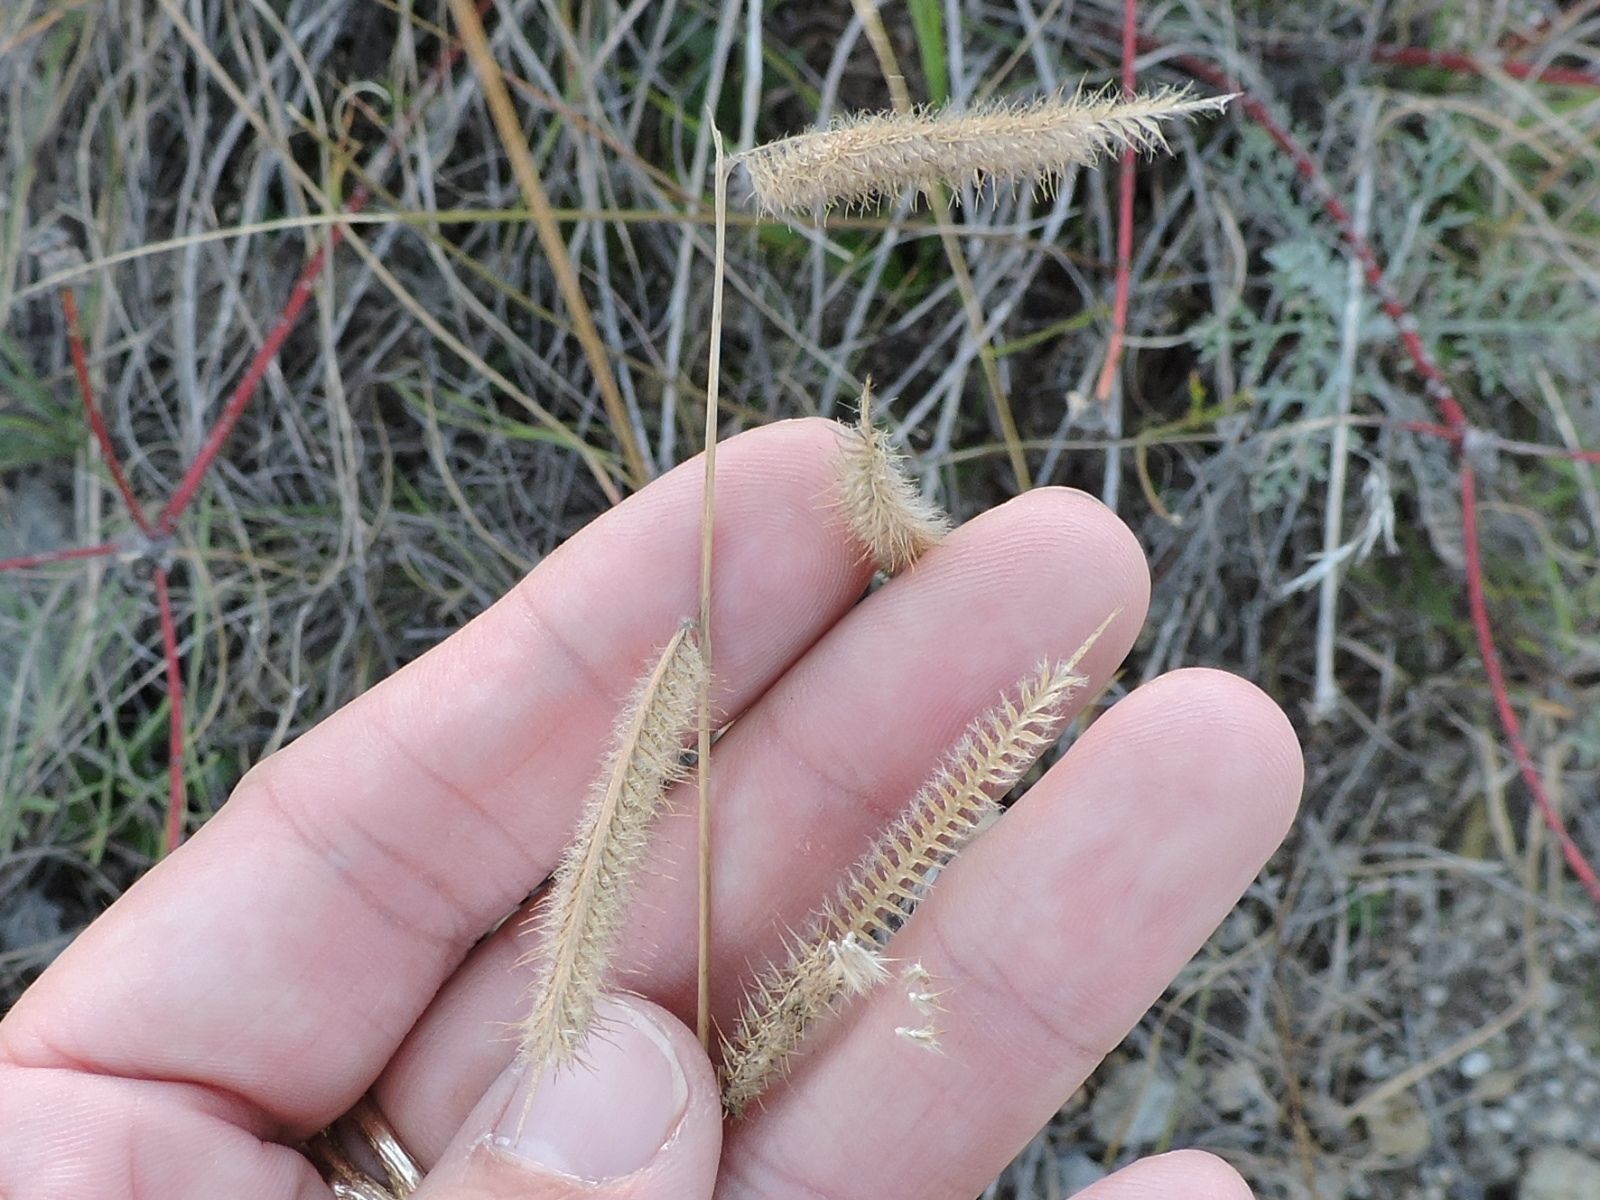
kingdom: Plantae
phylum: Tracheophyta
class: Liliopsida
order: Poales
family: Poaceae
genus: Bouteloua
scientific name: Bouteloua pectinata
